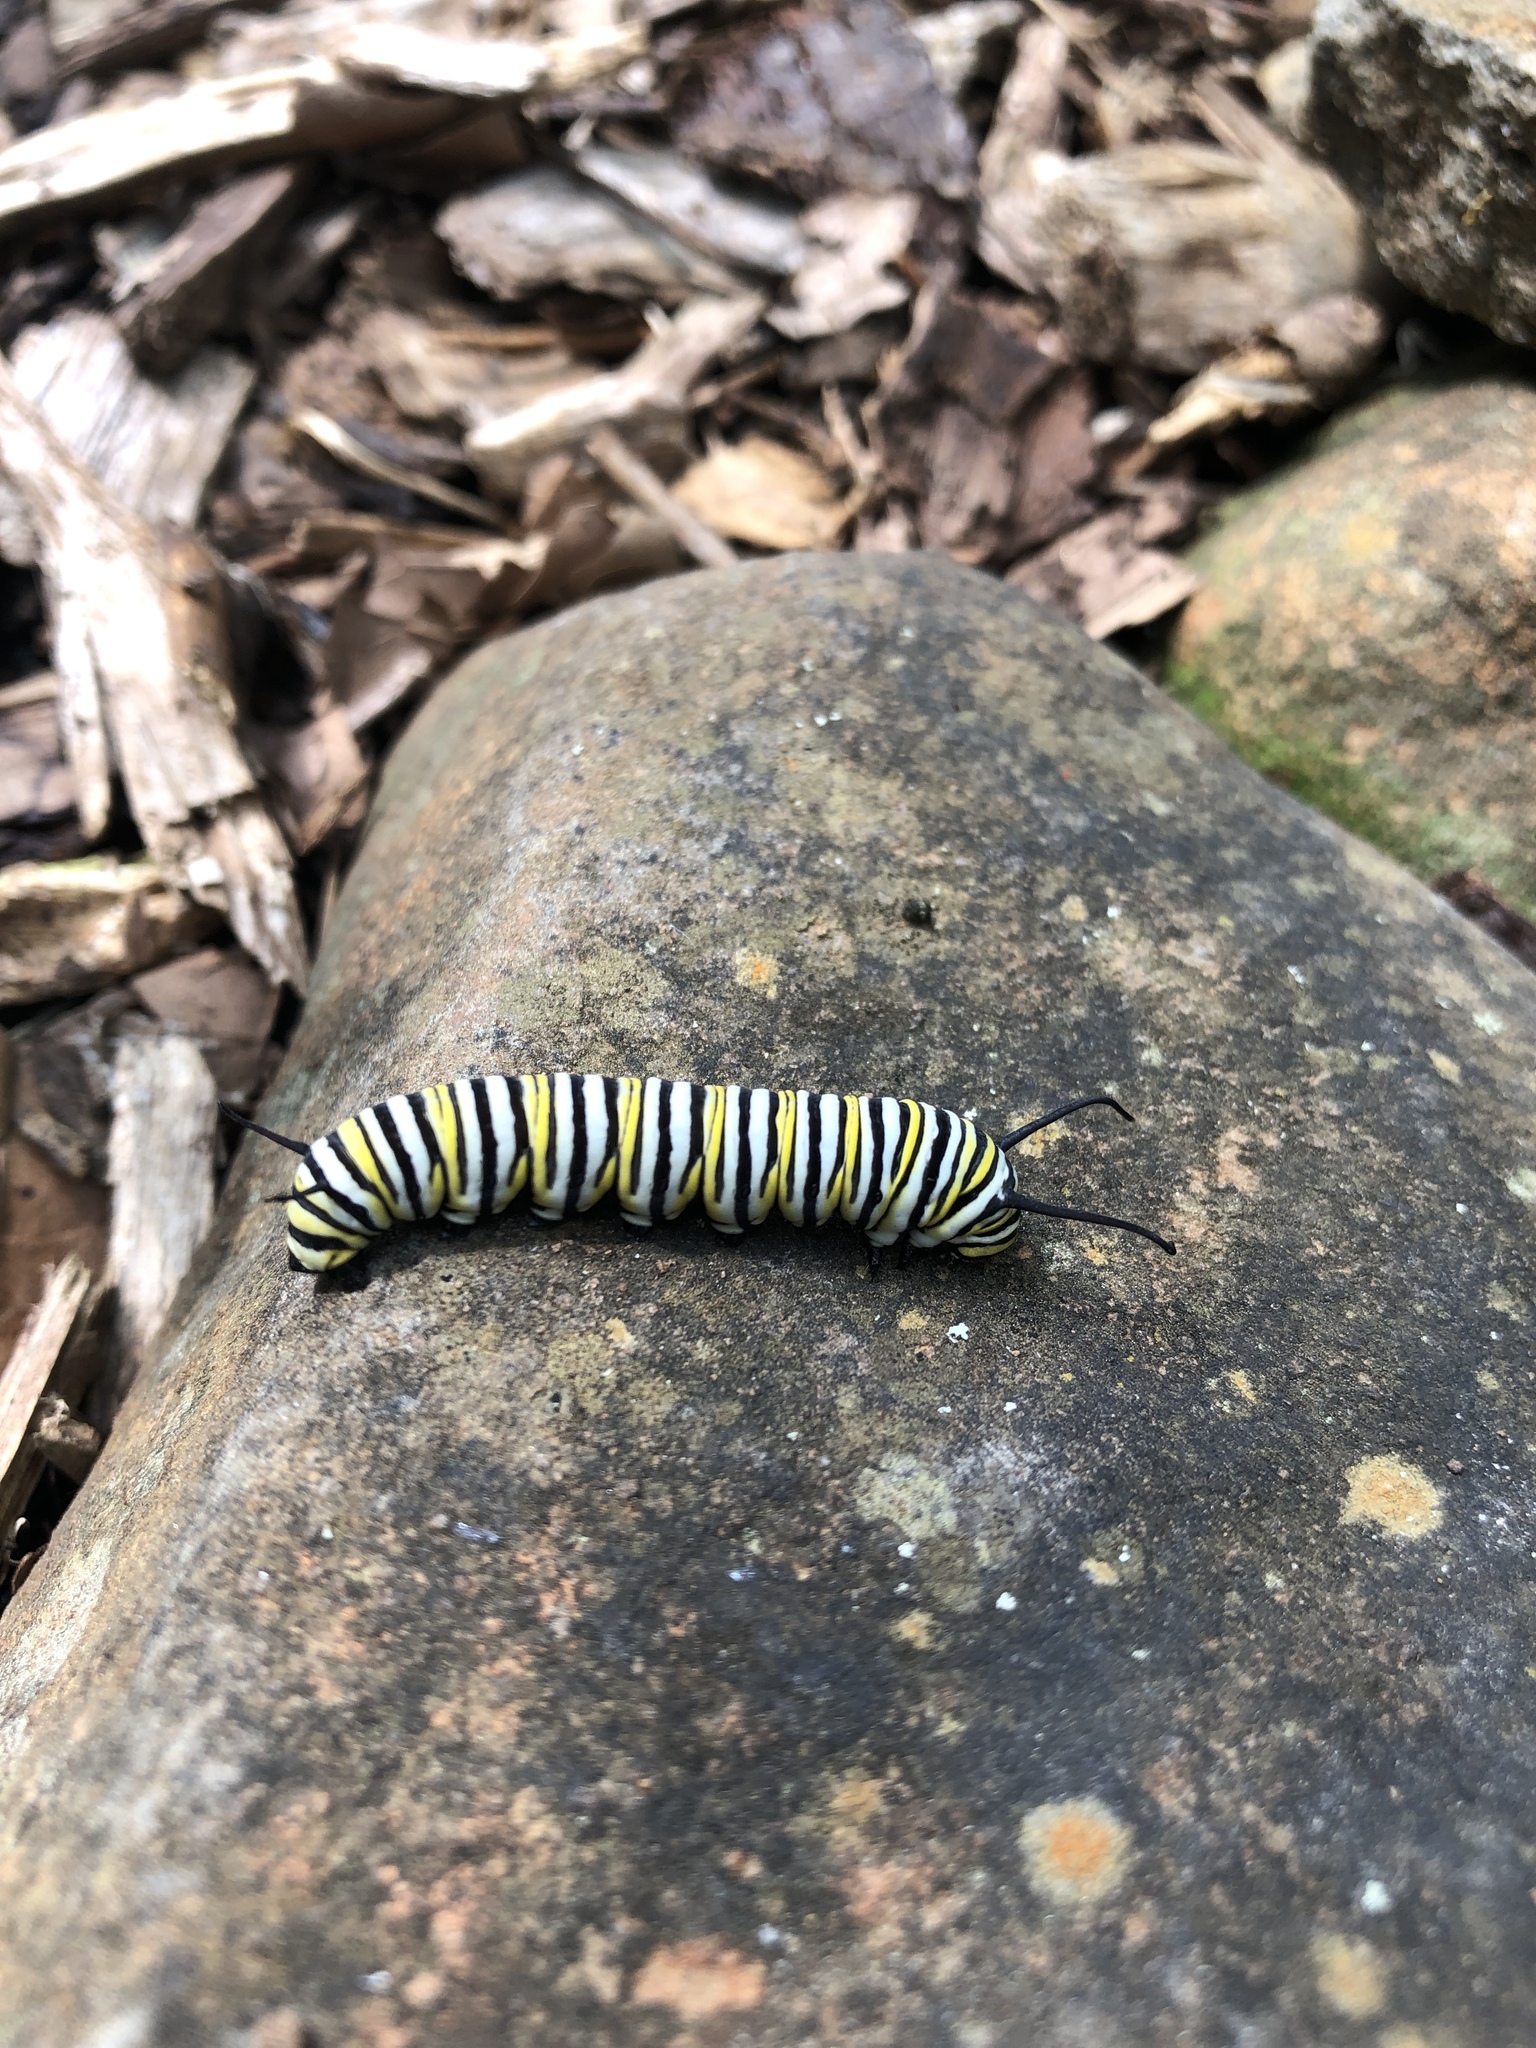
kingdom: Animalia
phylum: Arthropoda
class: Insecta
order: Lepidoptera
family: Nymphalidae
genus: Danaus
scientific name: Danaus plexippus
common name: Monarch
